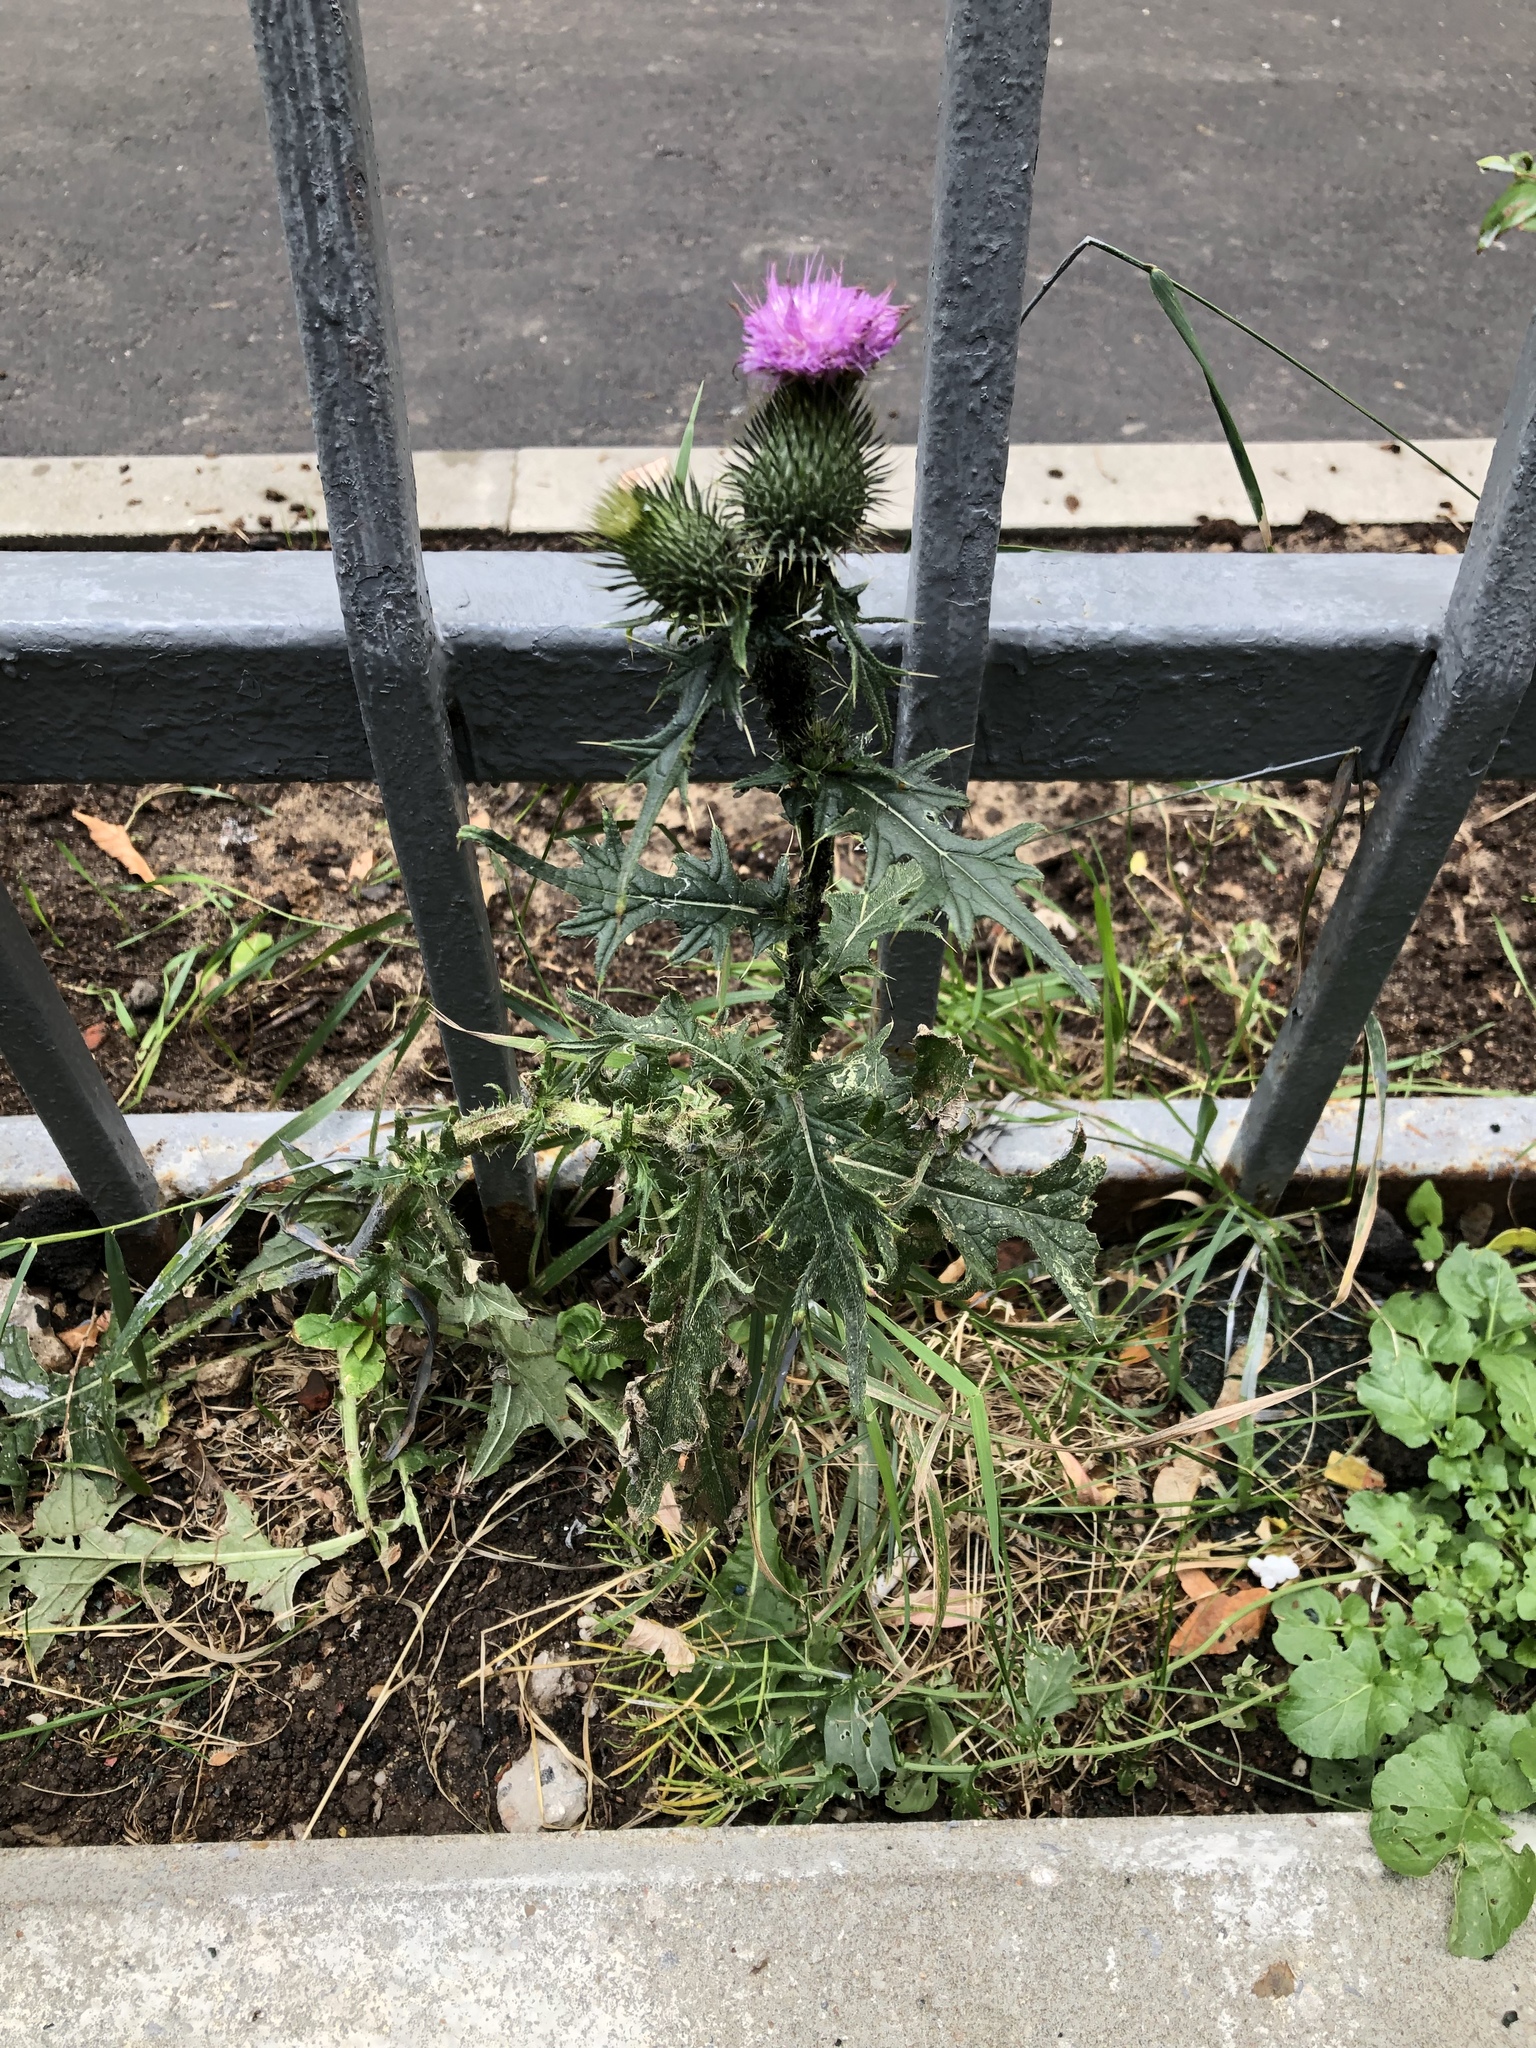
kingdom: Plantae
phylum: Tracheophyta
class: Magnoliopsida
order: Asterales
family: Asteraceae
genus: Cirsium
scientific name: Cirsium vulgare
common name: Bull thistle
